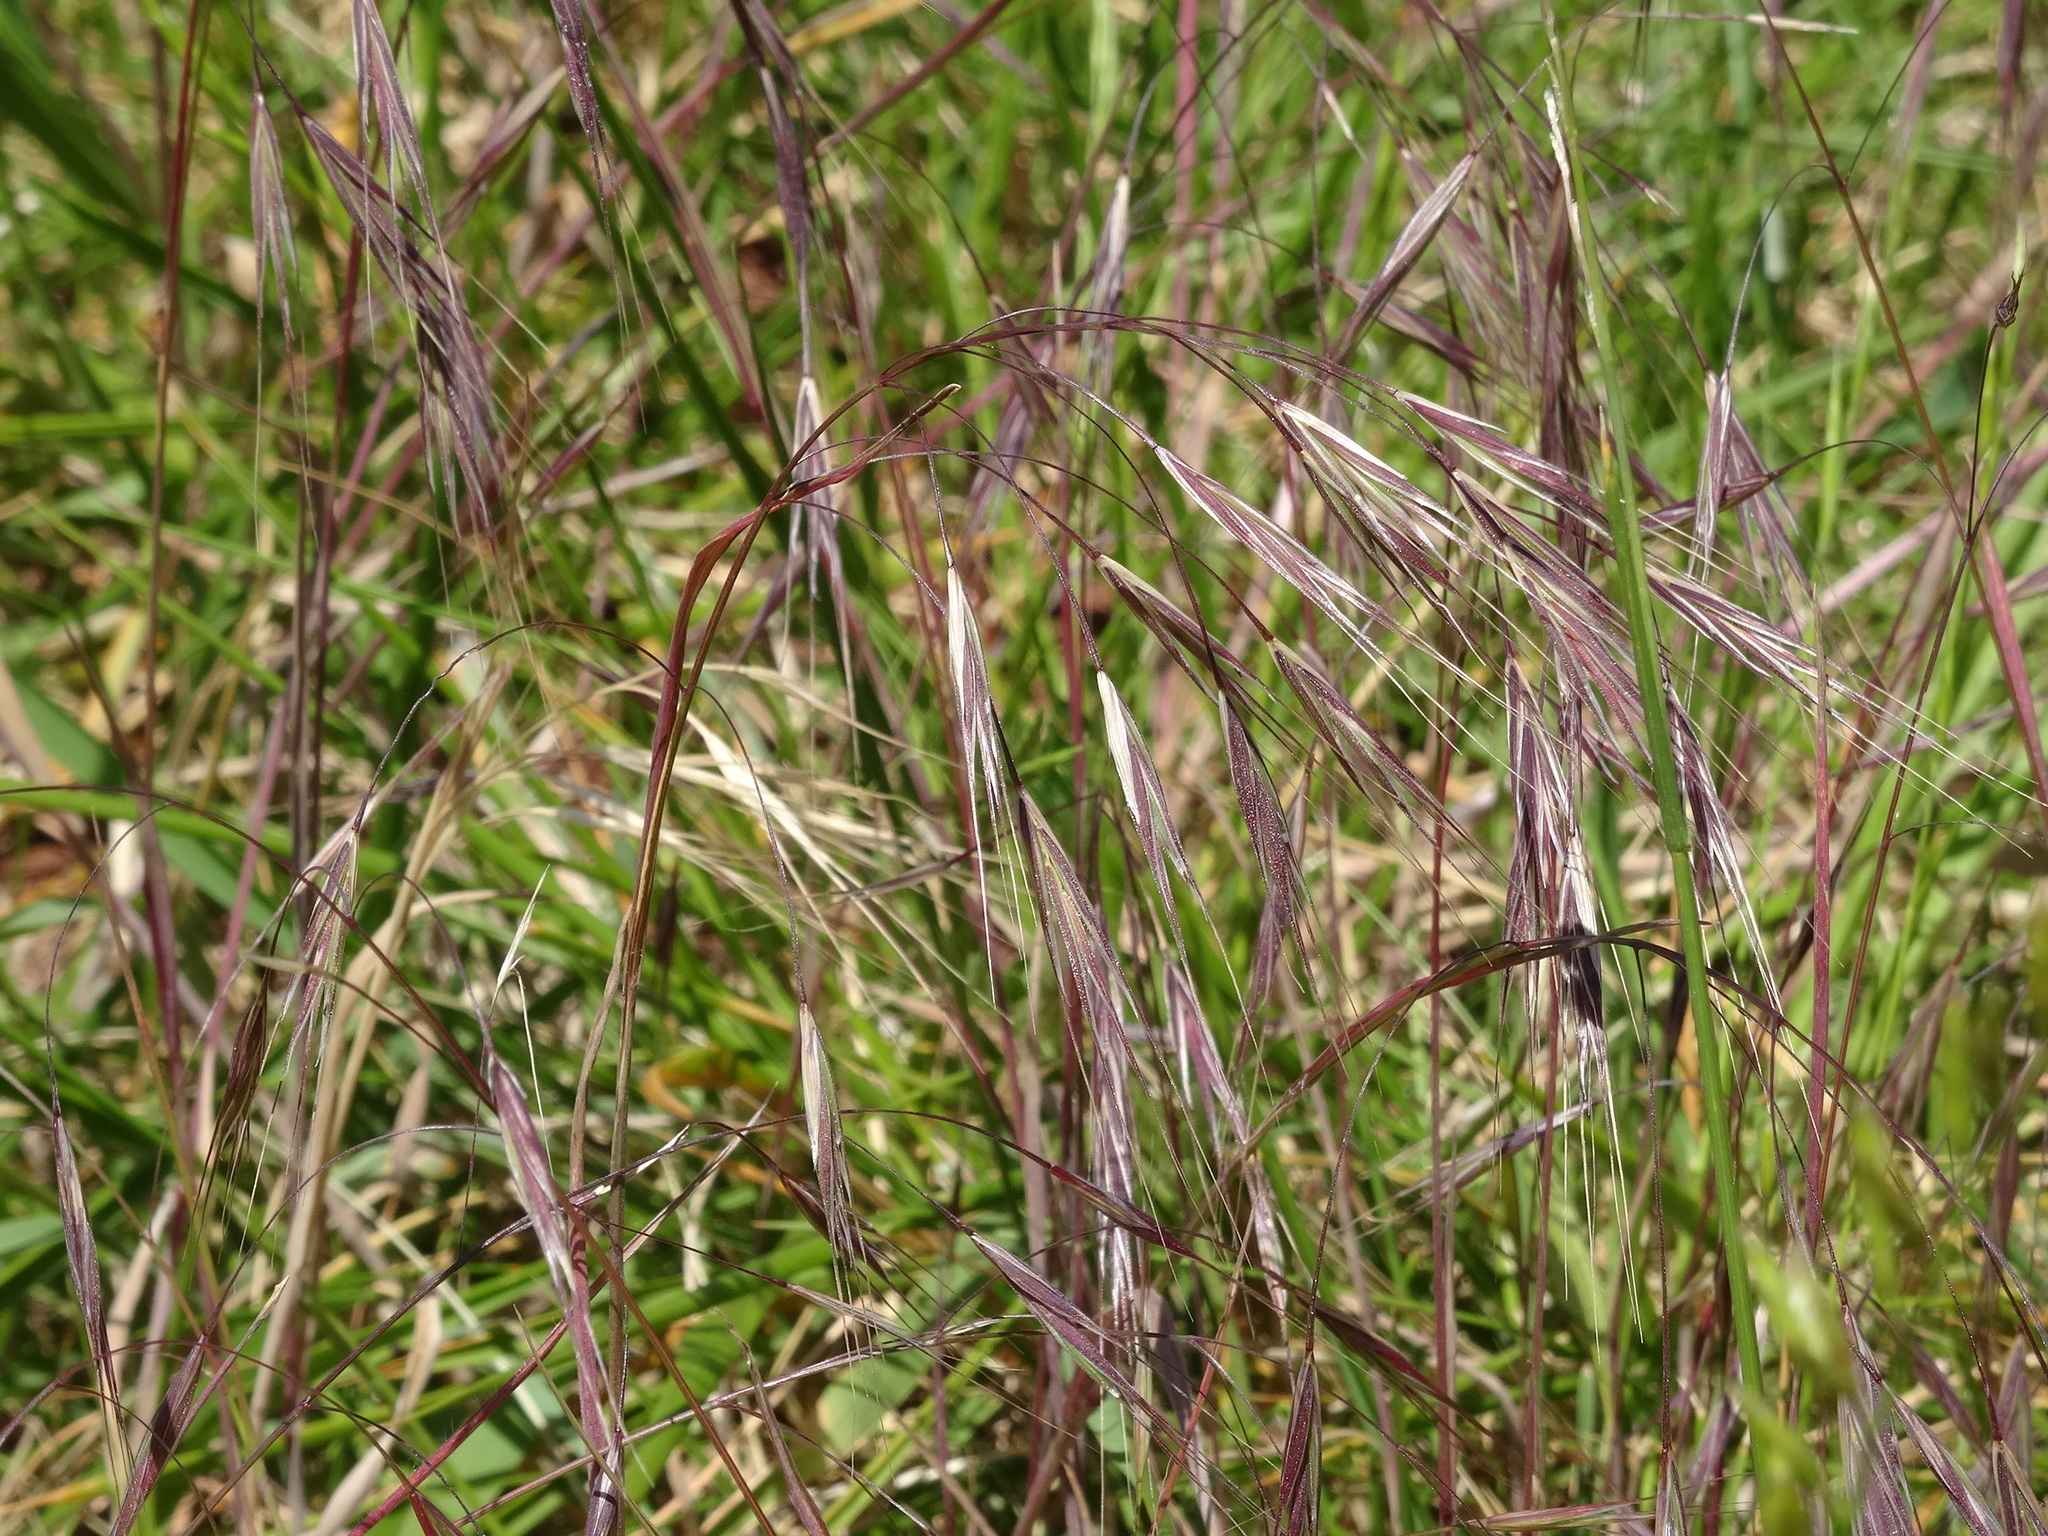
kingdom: Plantae
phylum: Tracheophyta
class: Liliopsida
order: Poales
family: Poaceae
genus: Bromus
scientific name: Bromus sterilis
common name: Poverty brome
